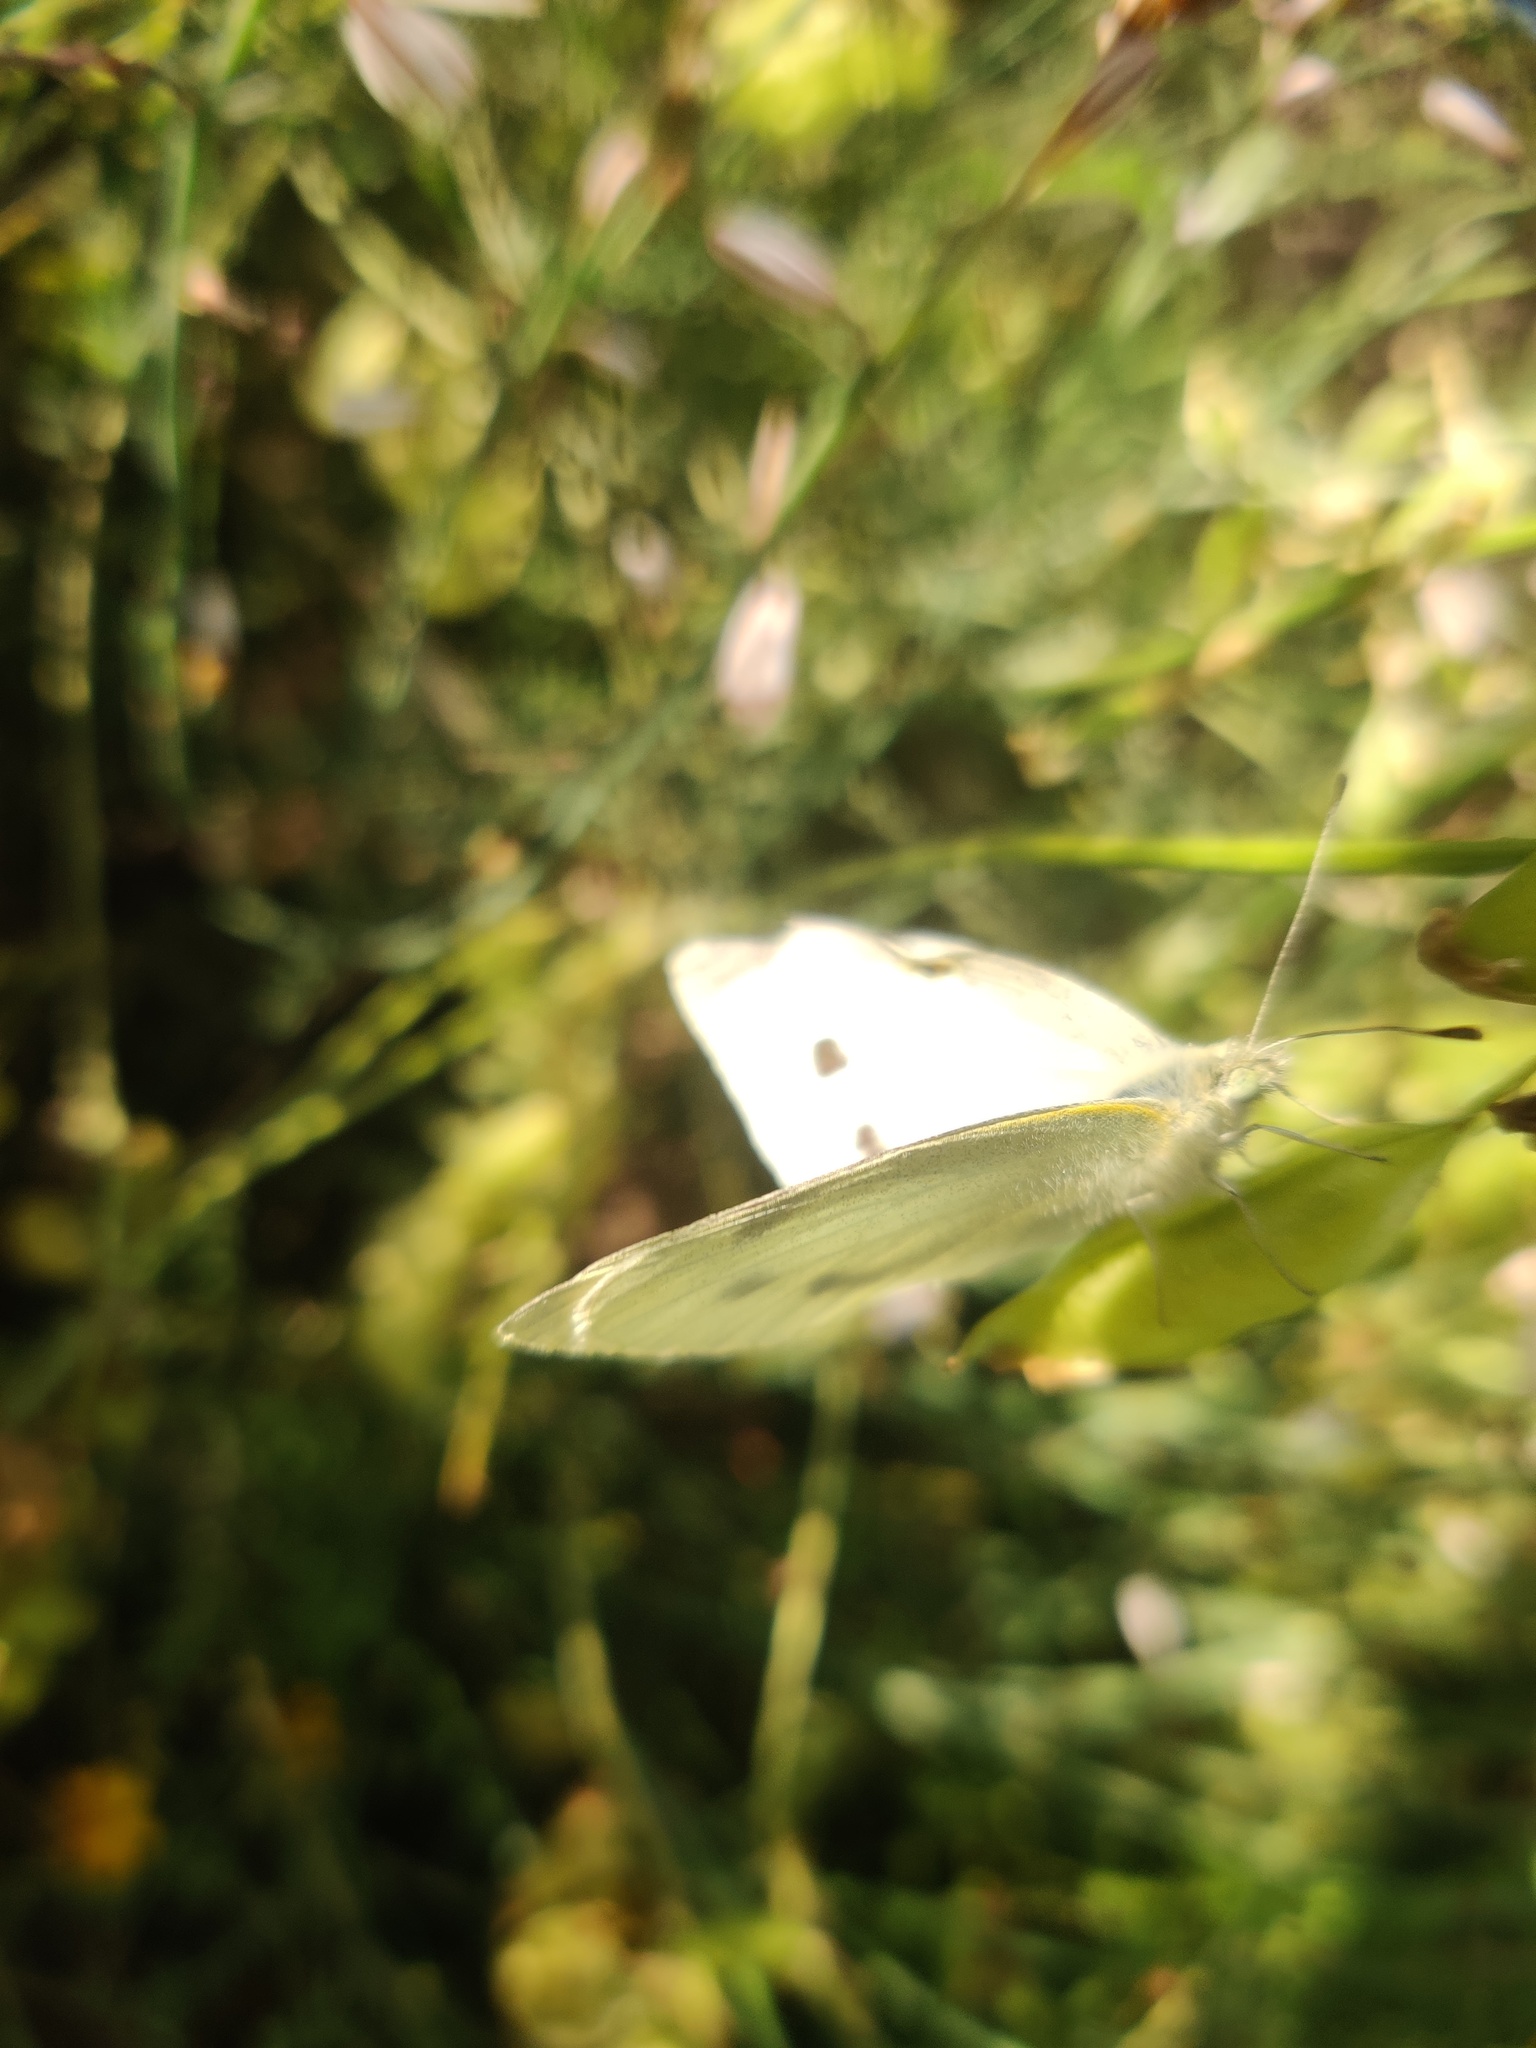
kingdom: Animalia
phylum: Arthropoda
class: Insecta
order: Lepidoptera
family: Pieridae
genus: Pieris
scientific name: Pieris rapae
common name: Small white
